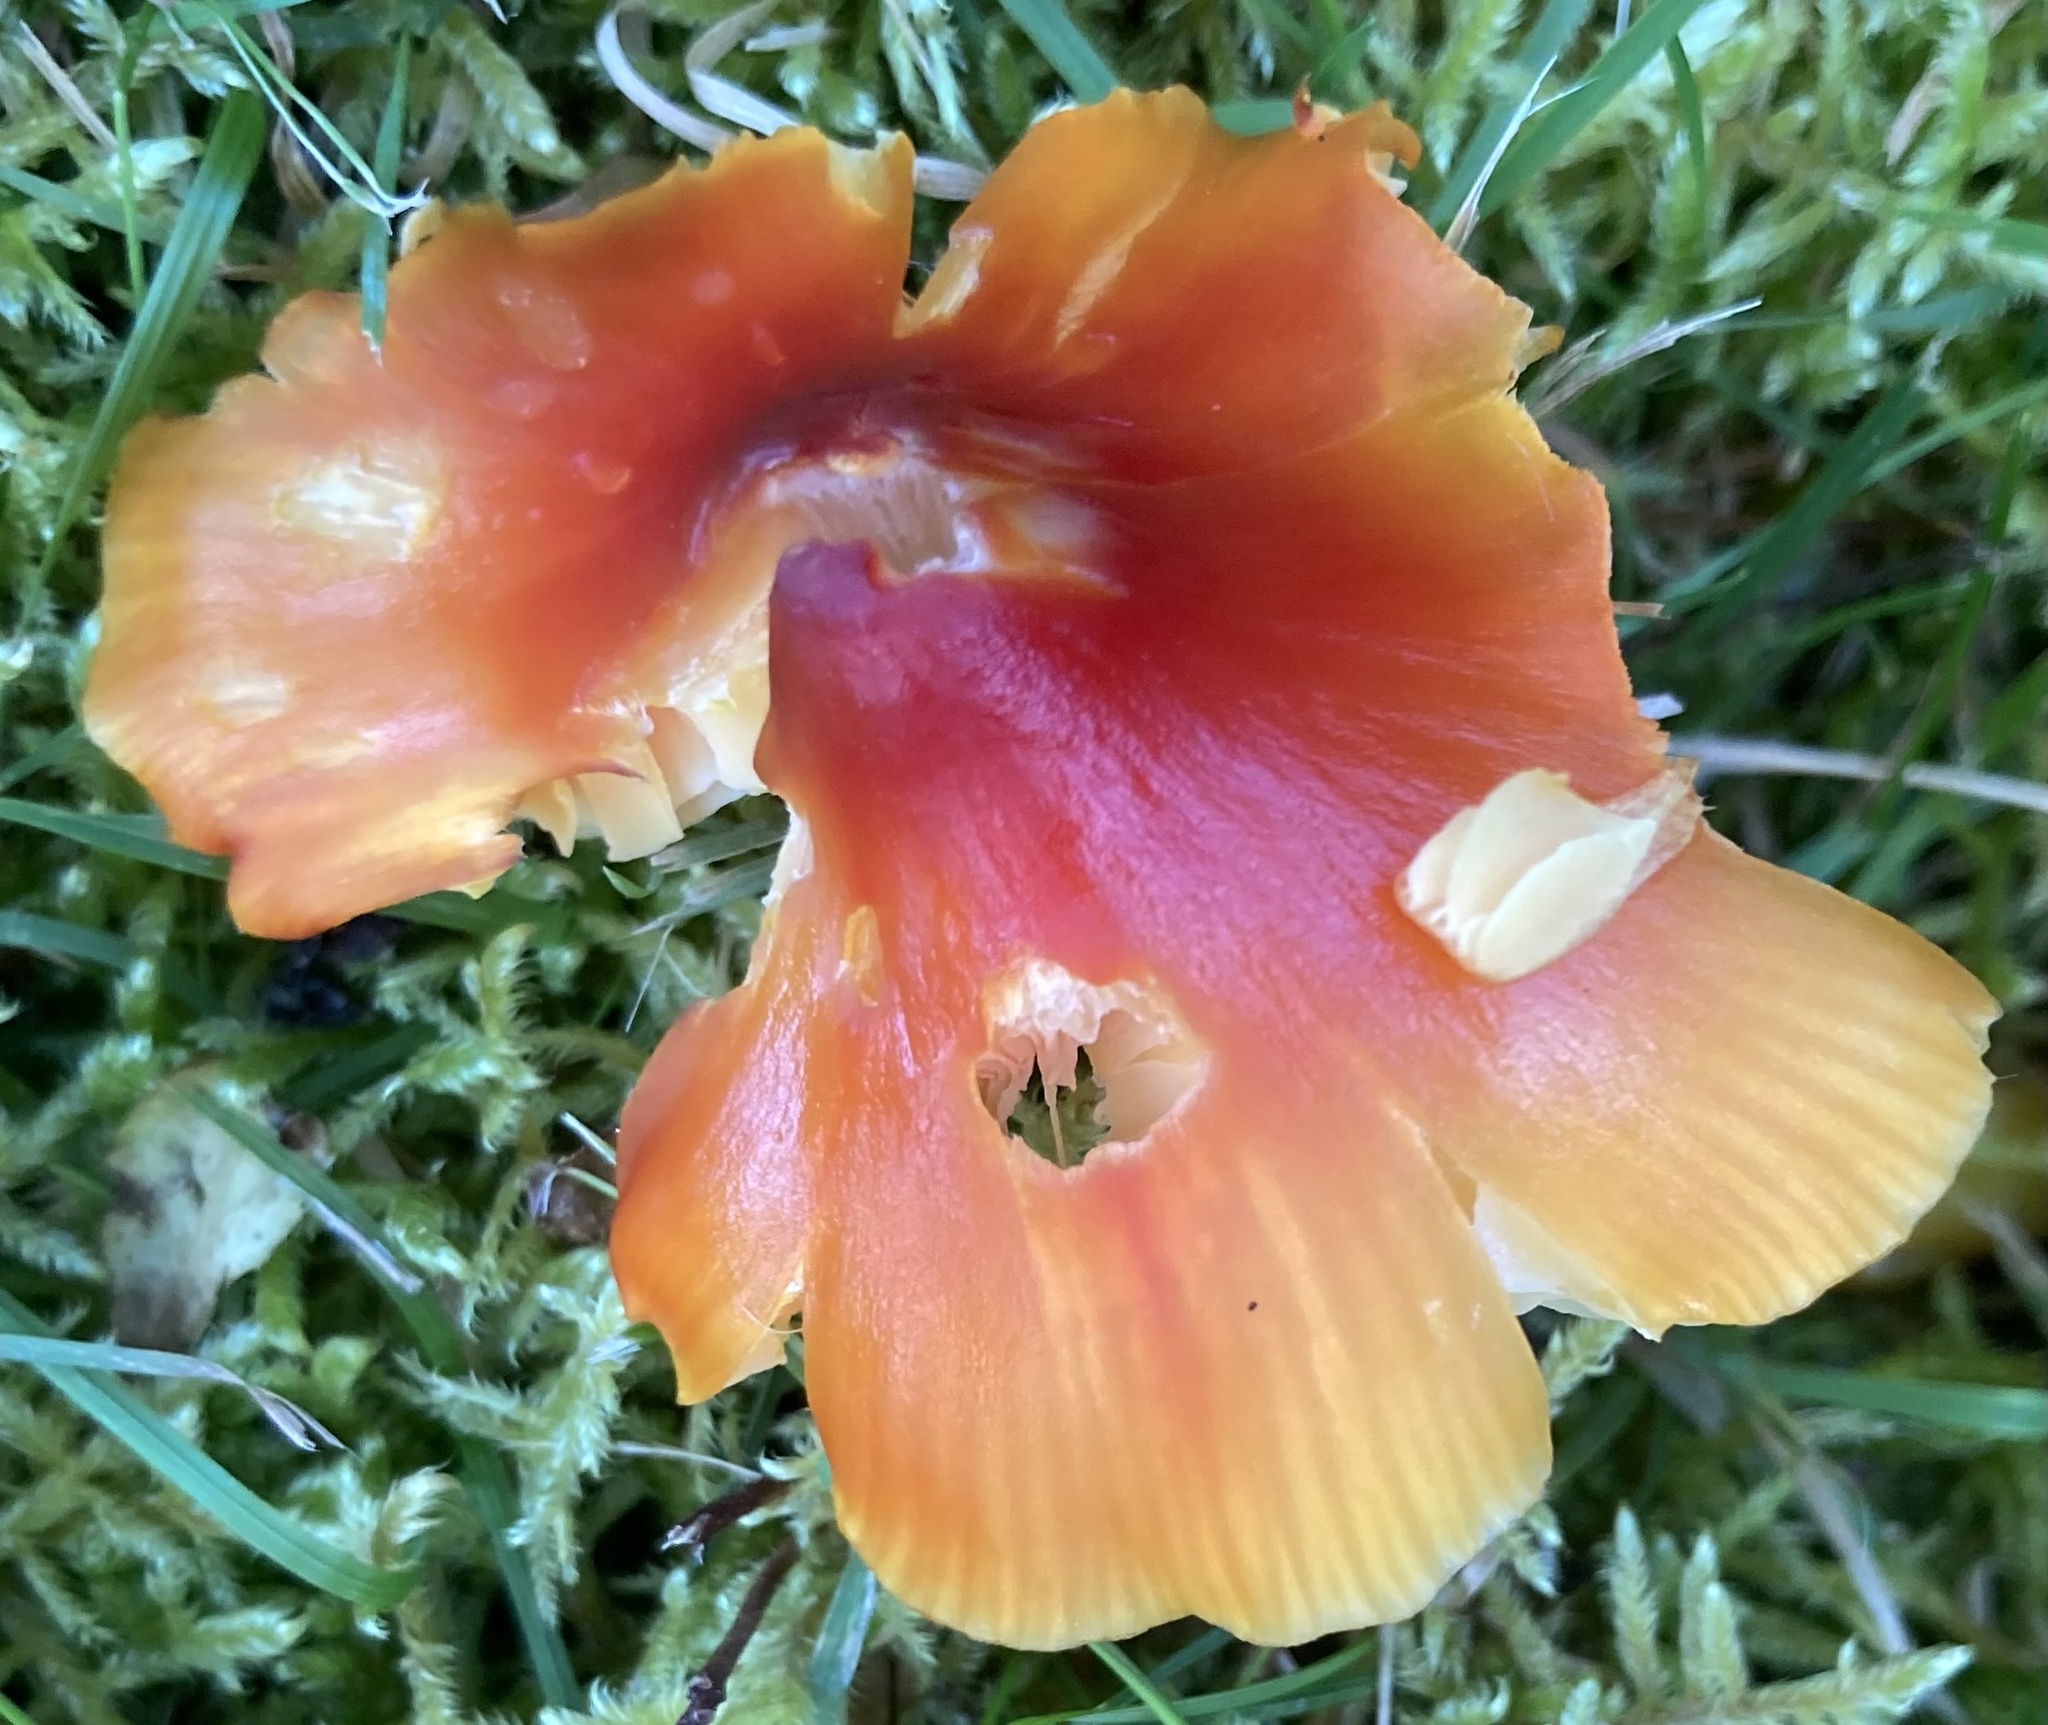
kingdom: Fungi
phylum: Basidiomycota
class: Agaricomycetes
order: Agaricales
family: Hygrophoraceae
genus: Hygrocybe
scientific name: Hygrocybe conica
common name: Blackening wax-cap
